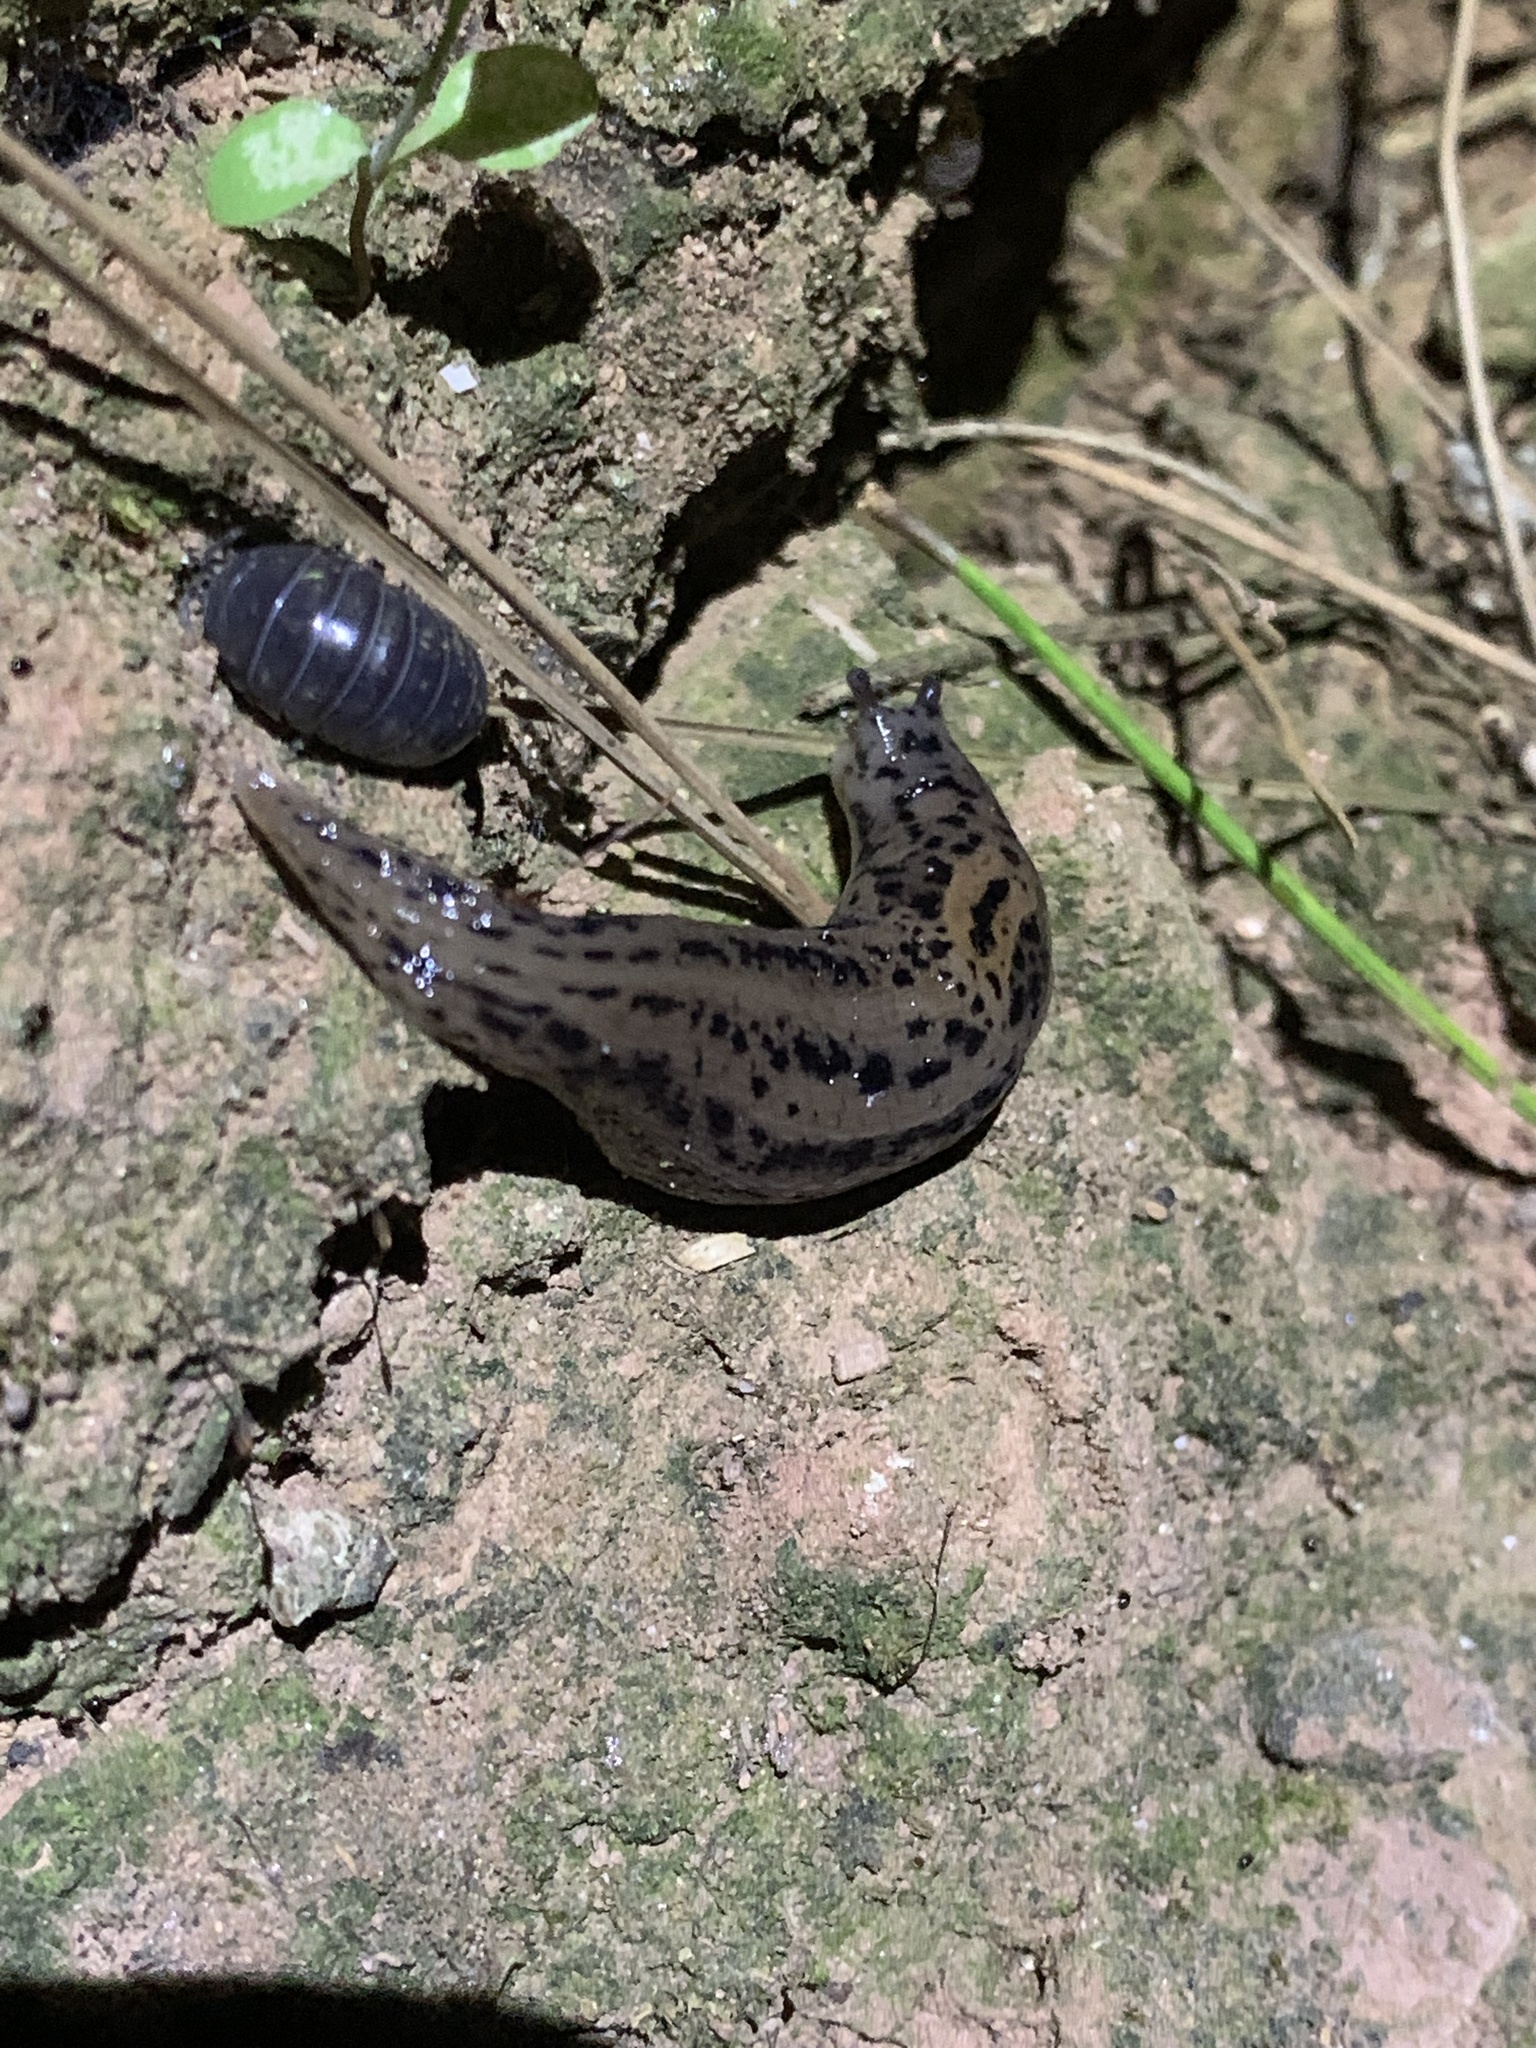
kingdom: Animalia
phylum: Mollusca
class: Gastropoda
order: Stylommatophora
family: Limacidae
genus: Limax
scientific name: Limax maximus
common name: Great grey slug
